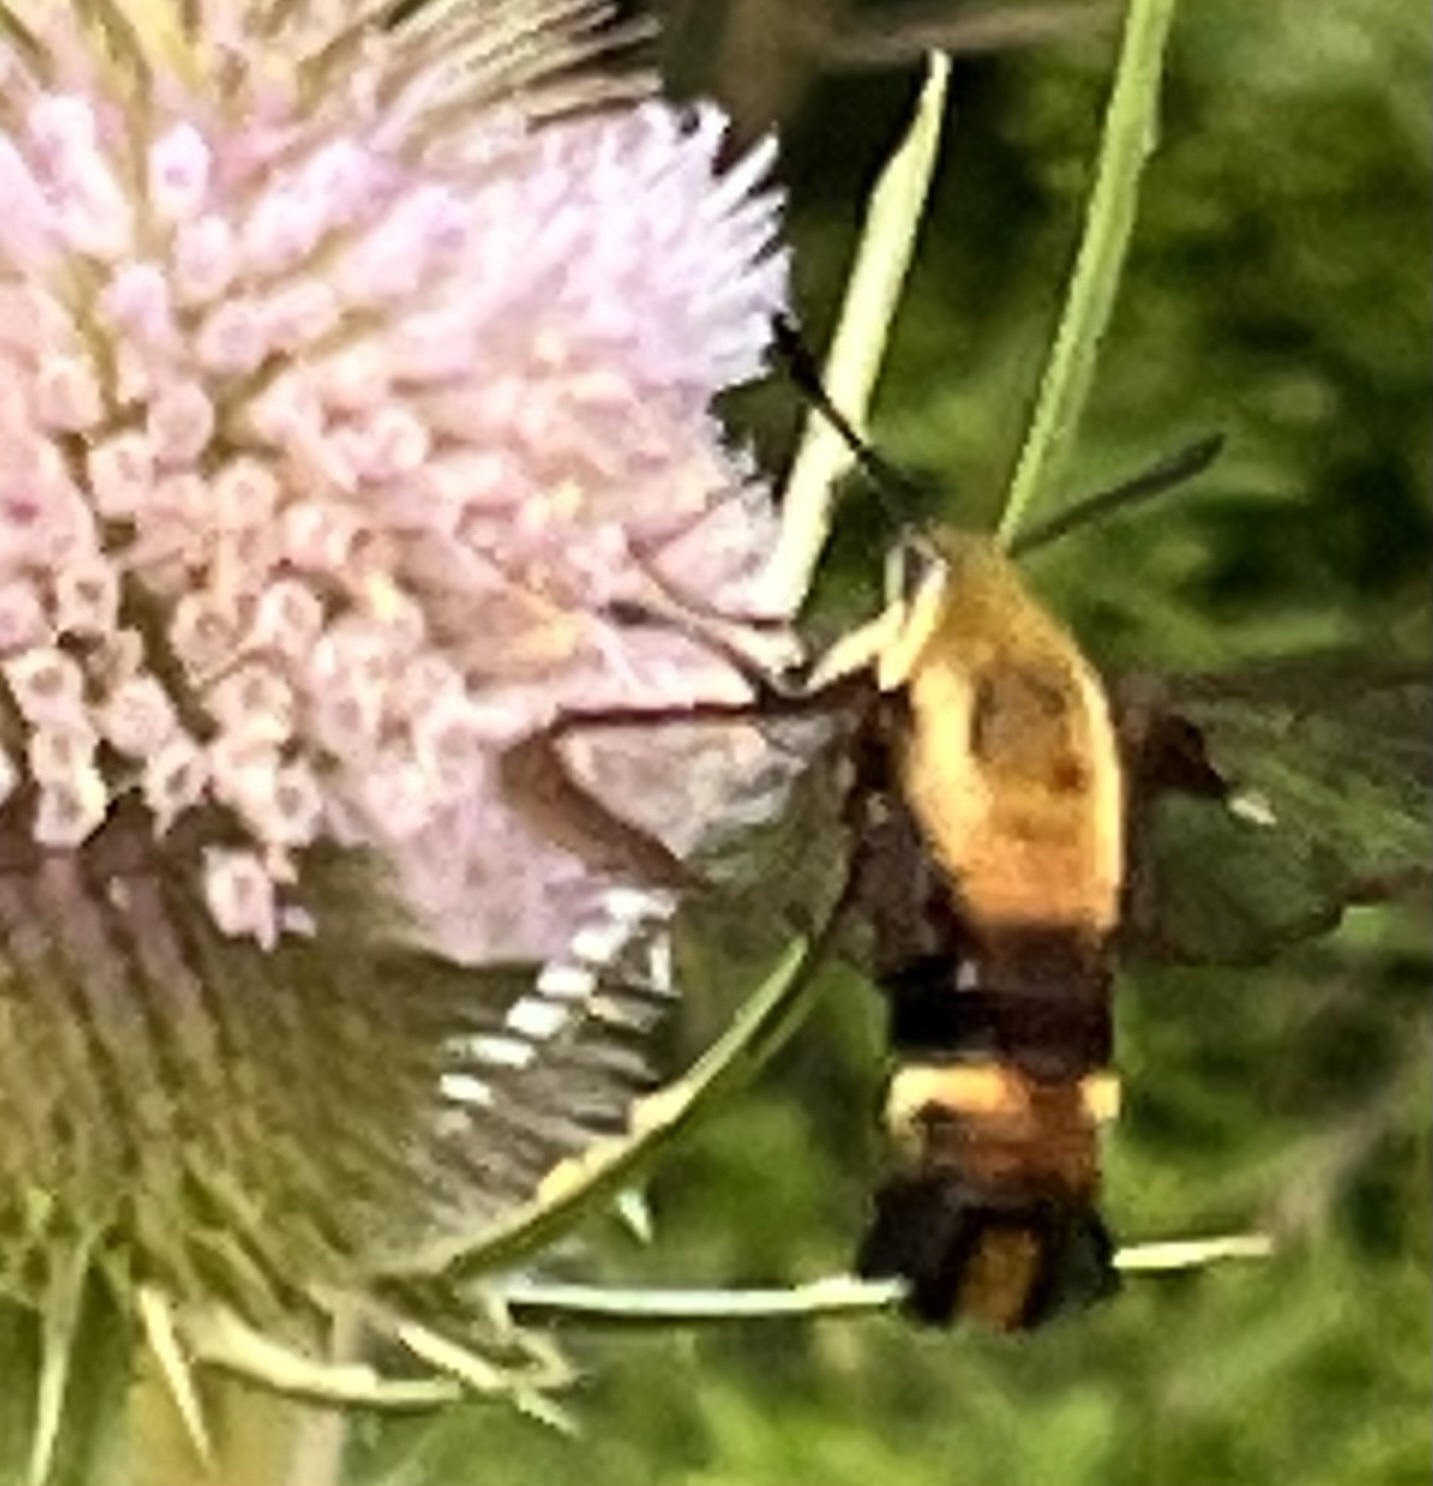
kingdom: Animalia
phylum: Arthropoda
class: Insecta
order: Lepidoptera
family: Sphingidae
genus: Hemaris
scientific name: Hemaris diffinis
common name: Bumblebee moth
